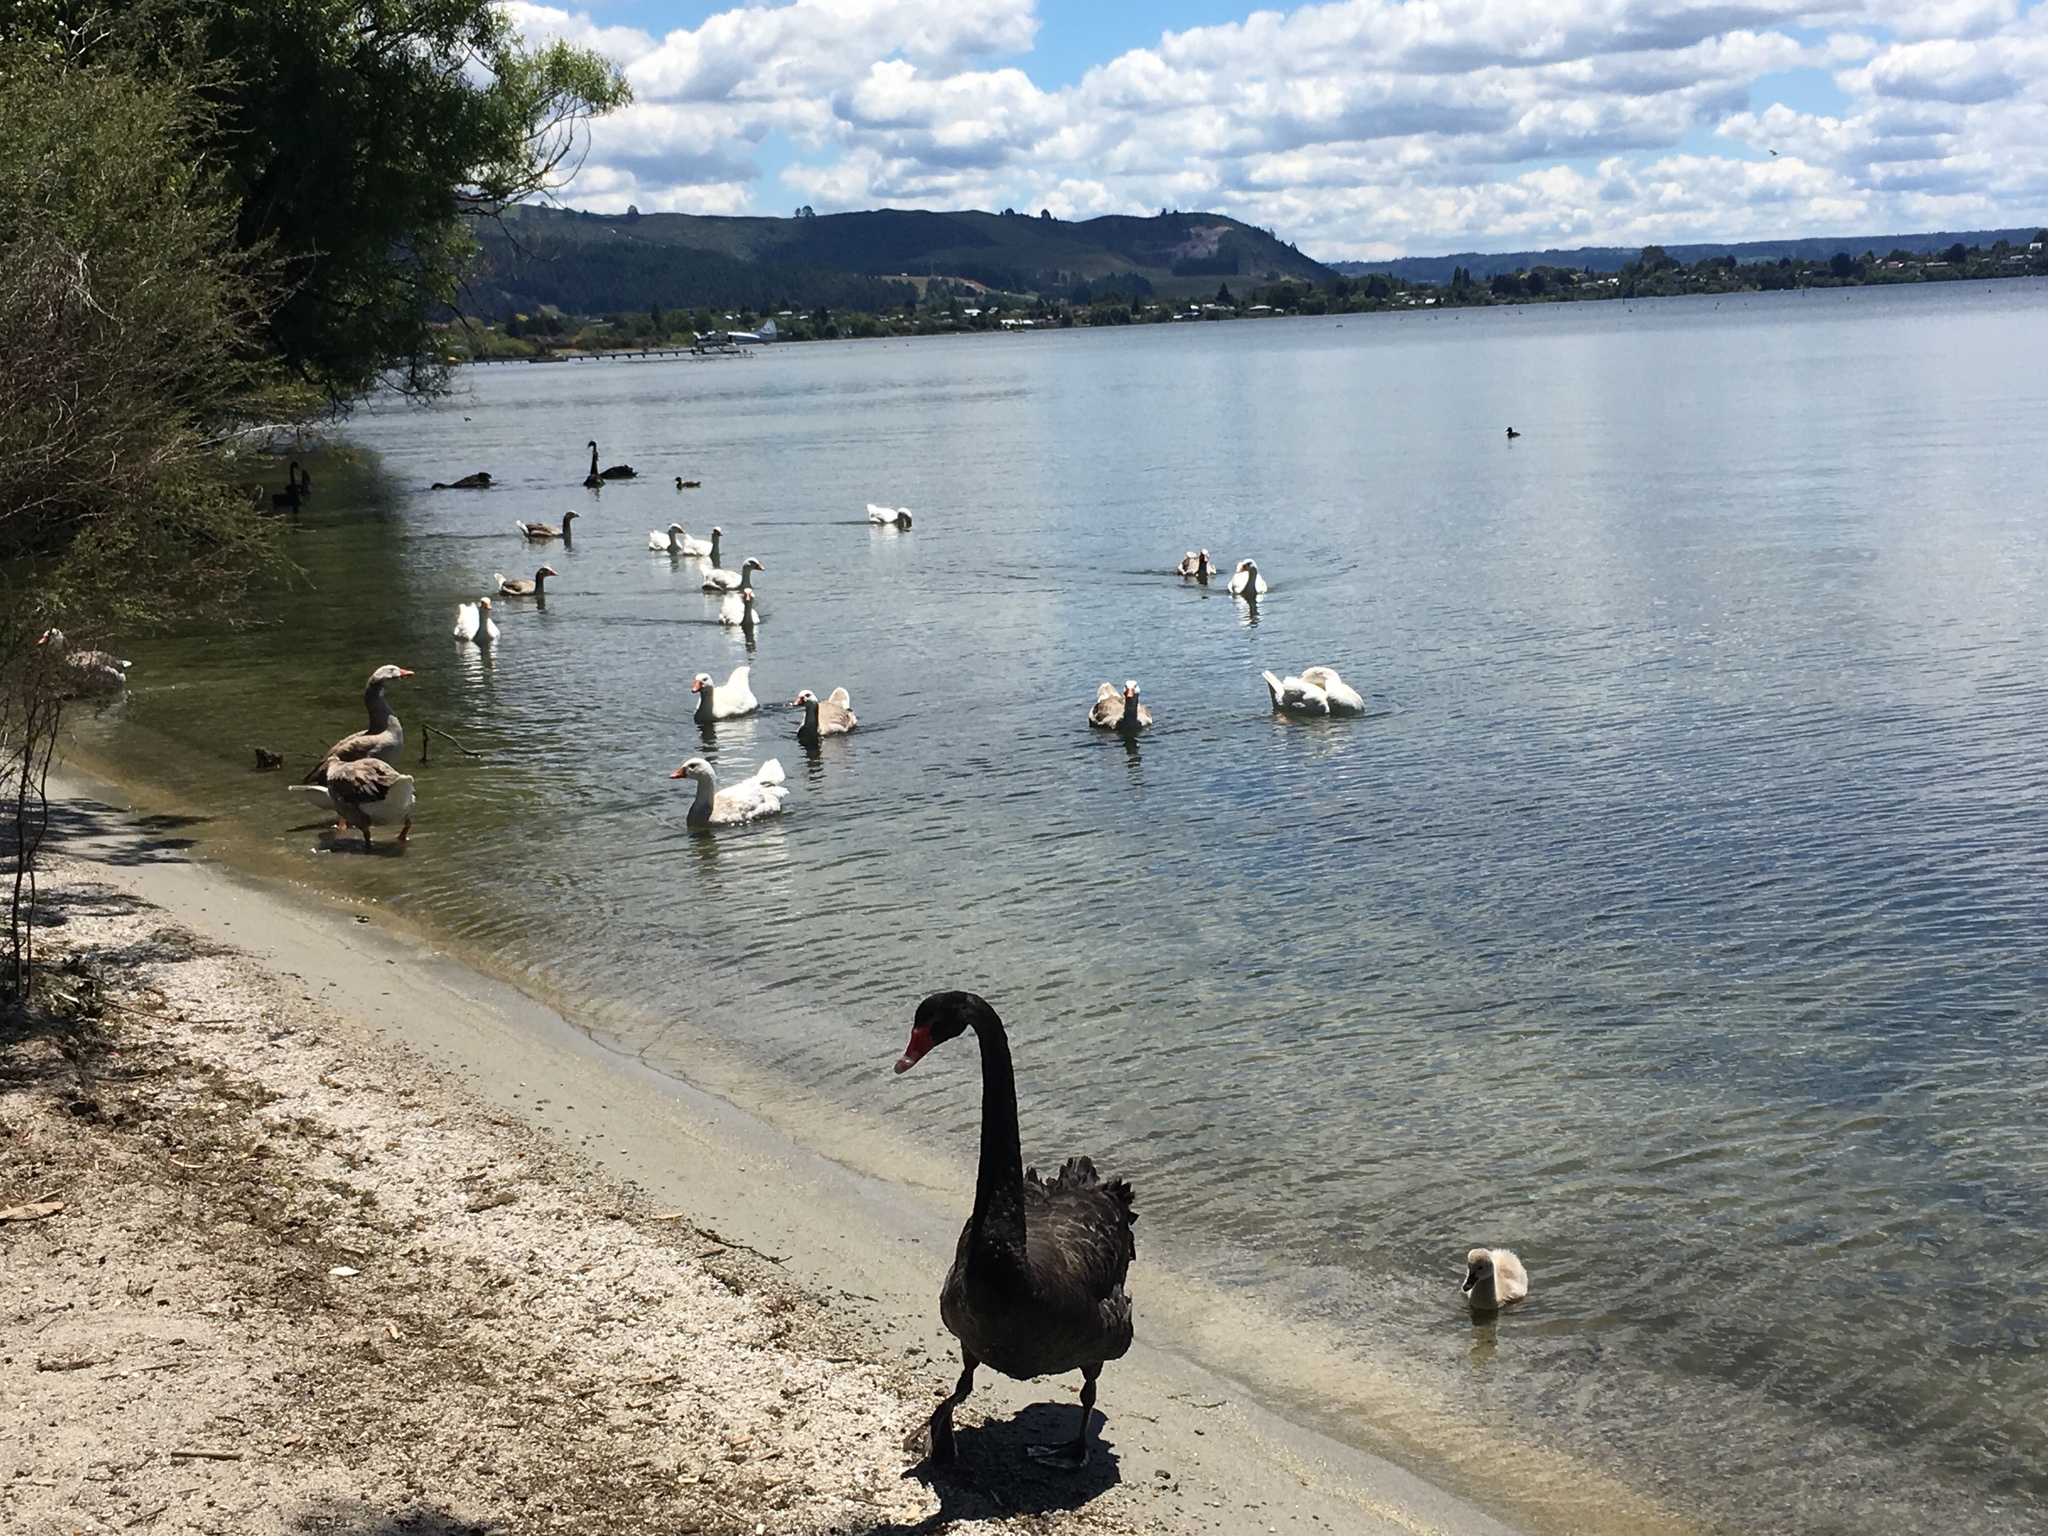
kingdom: Animalia
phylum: Chordata
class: Aves
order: Anseriformes
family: Anatidae
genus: Cygnus
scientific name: Cygnus atratus
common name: Black swan
